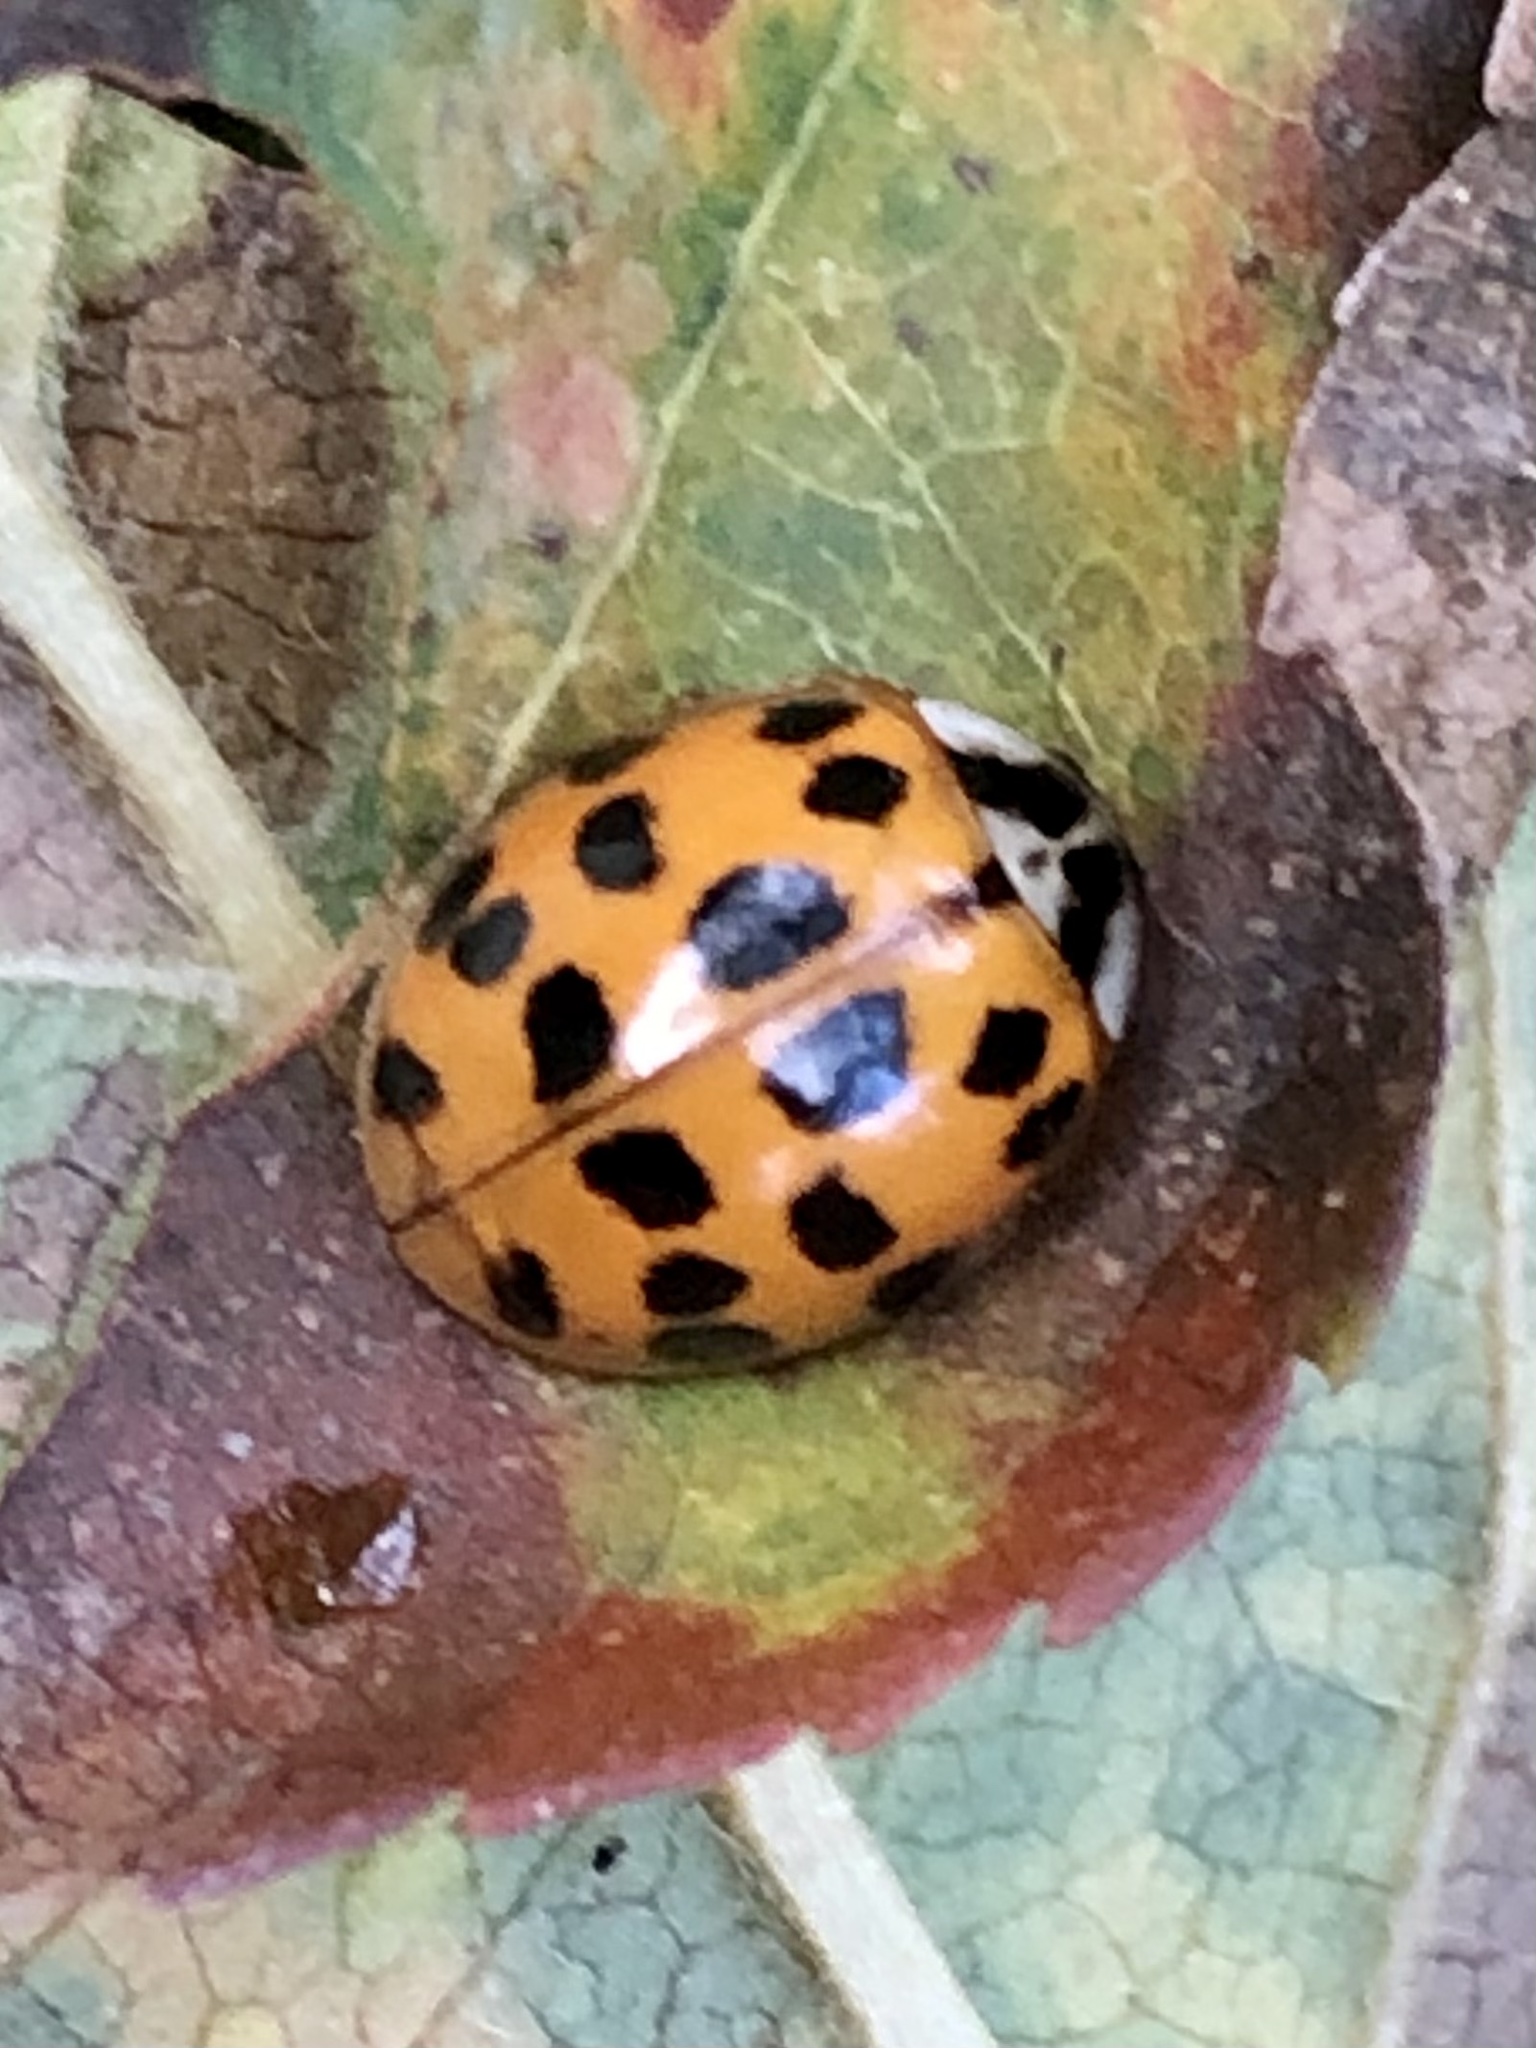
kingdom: Animalia
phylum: Arthropoda
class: Insecta
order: Coleoptera
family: Coccinellidae
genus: Harmonia
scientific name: Harmonia axyridis
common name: Harlequin ladybird
